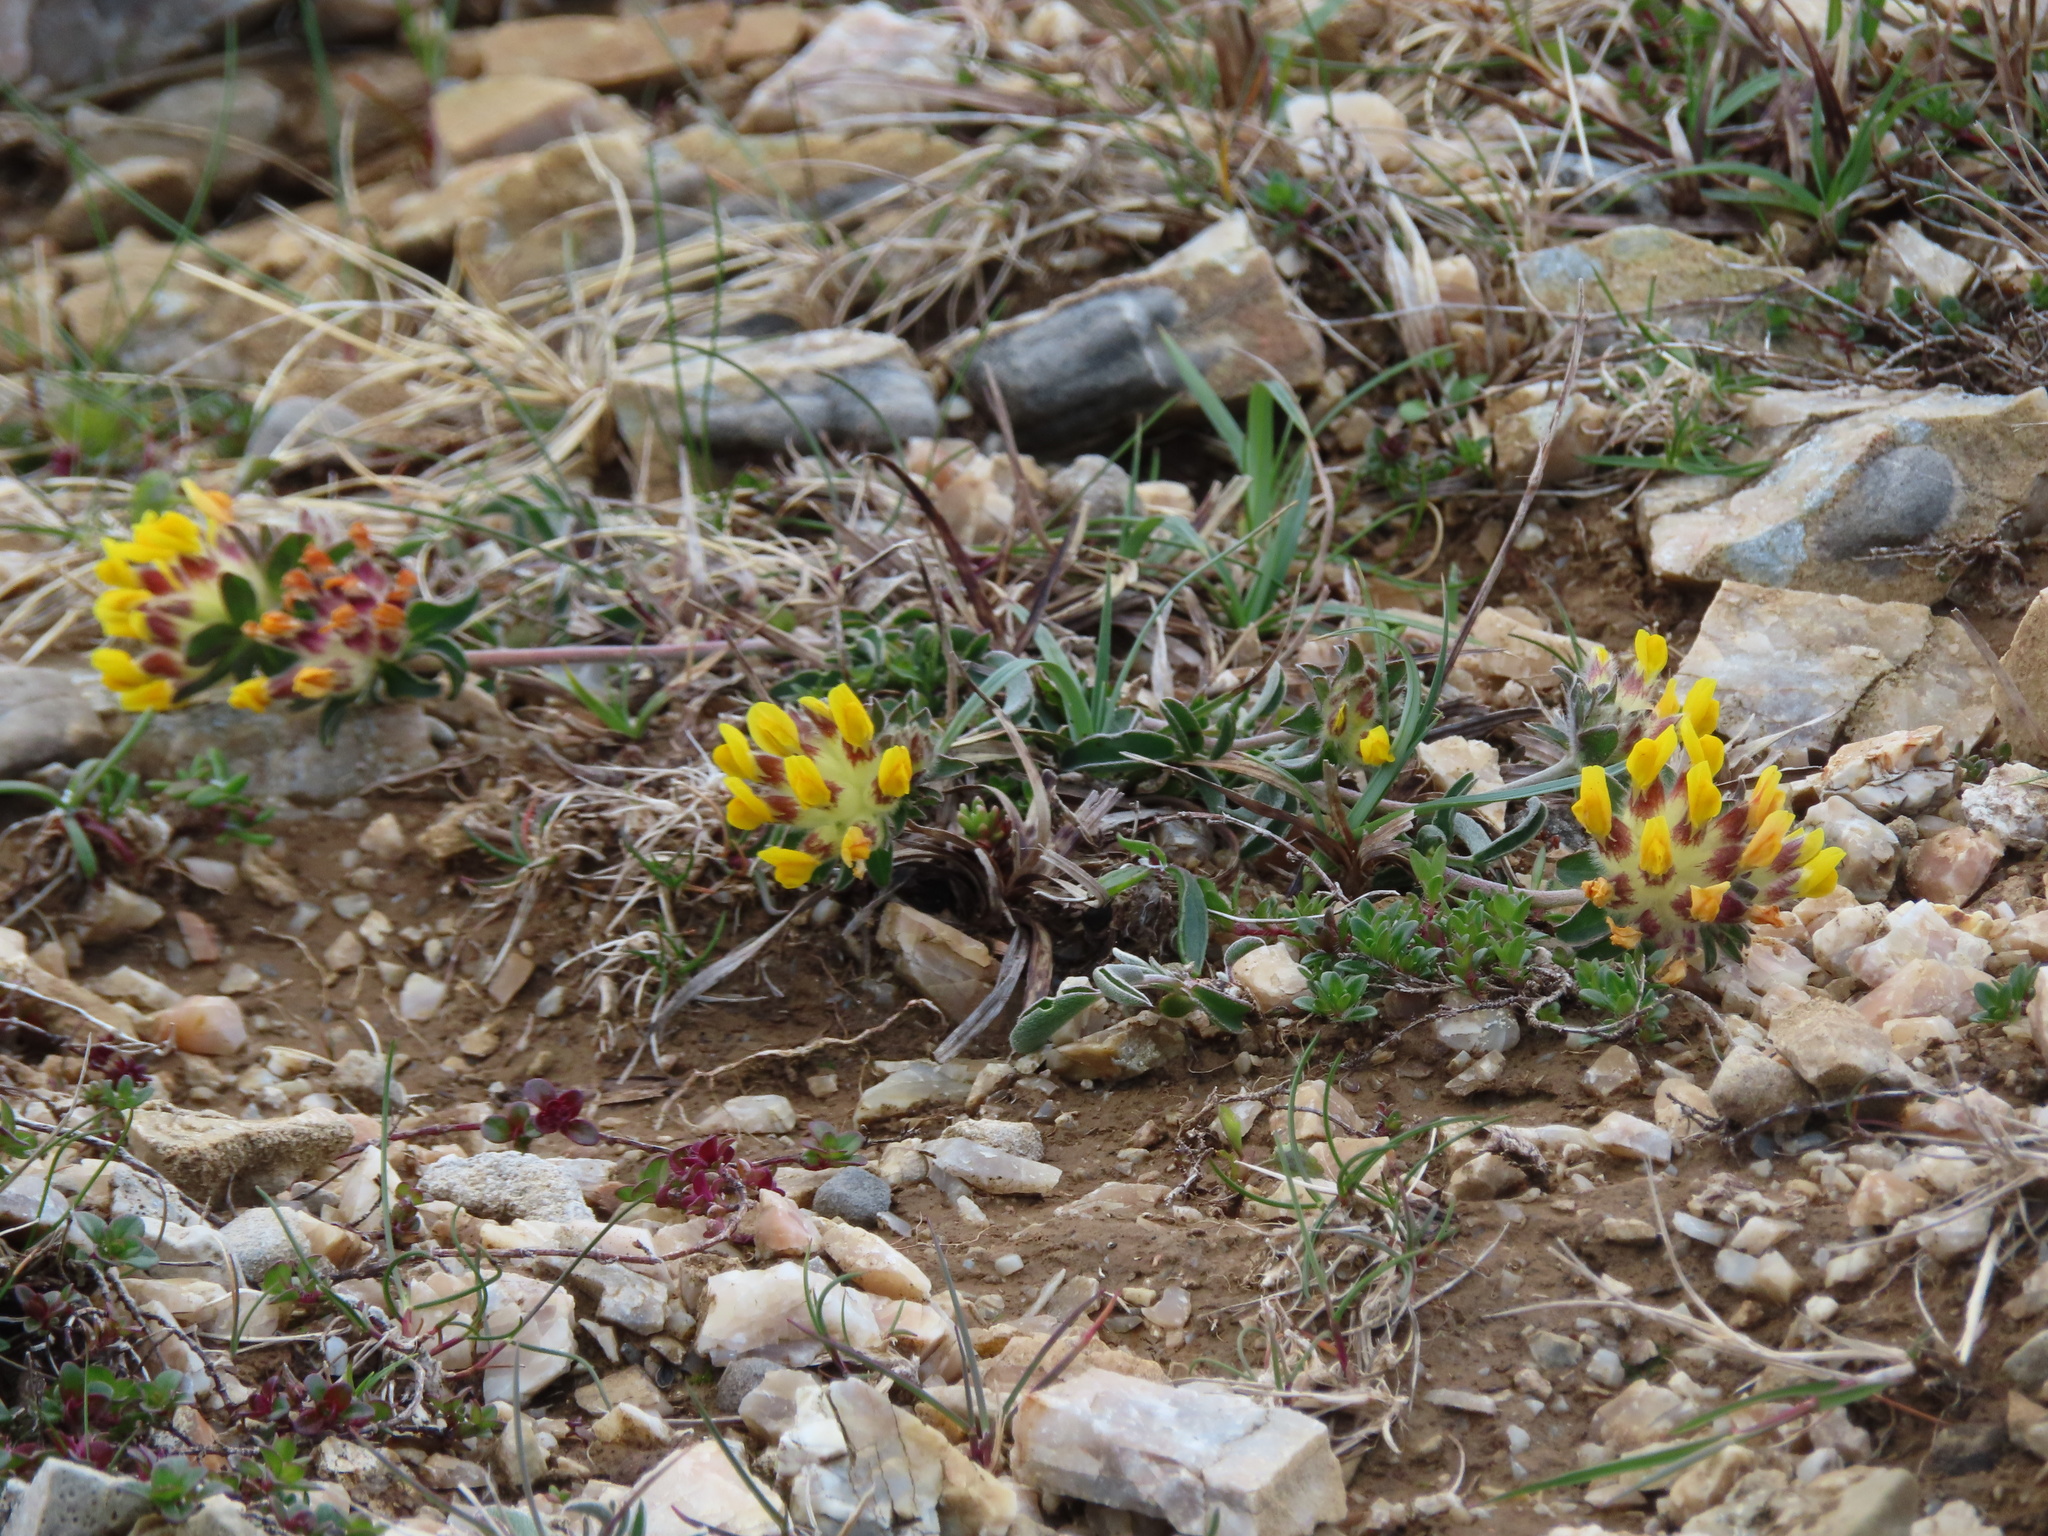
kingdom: Plantae
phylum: Tracheophyta
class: Magnoliopsida
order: Fabales
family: Fabaceae
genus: Anthyllis
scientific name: Anthyllis vulneraria
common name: Kidney vetch
